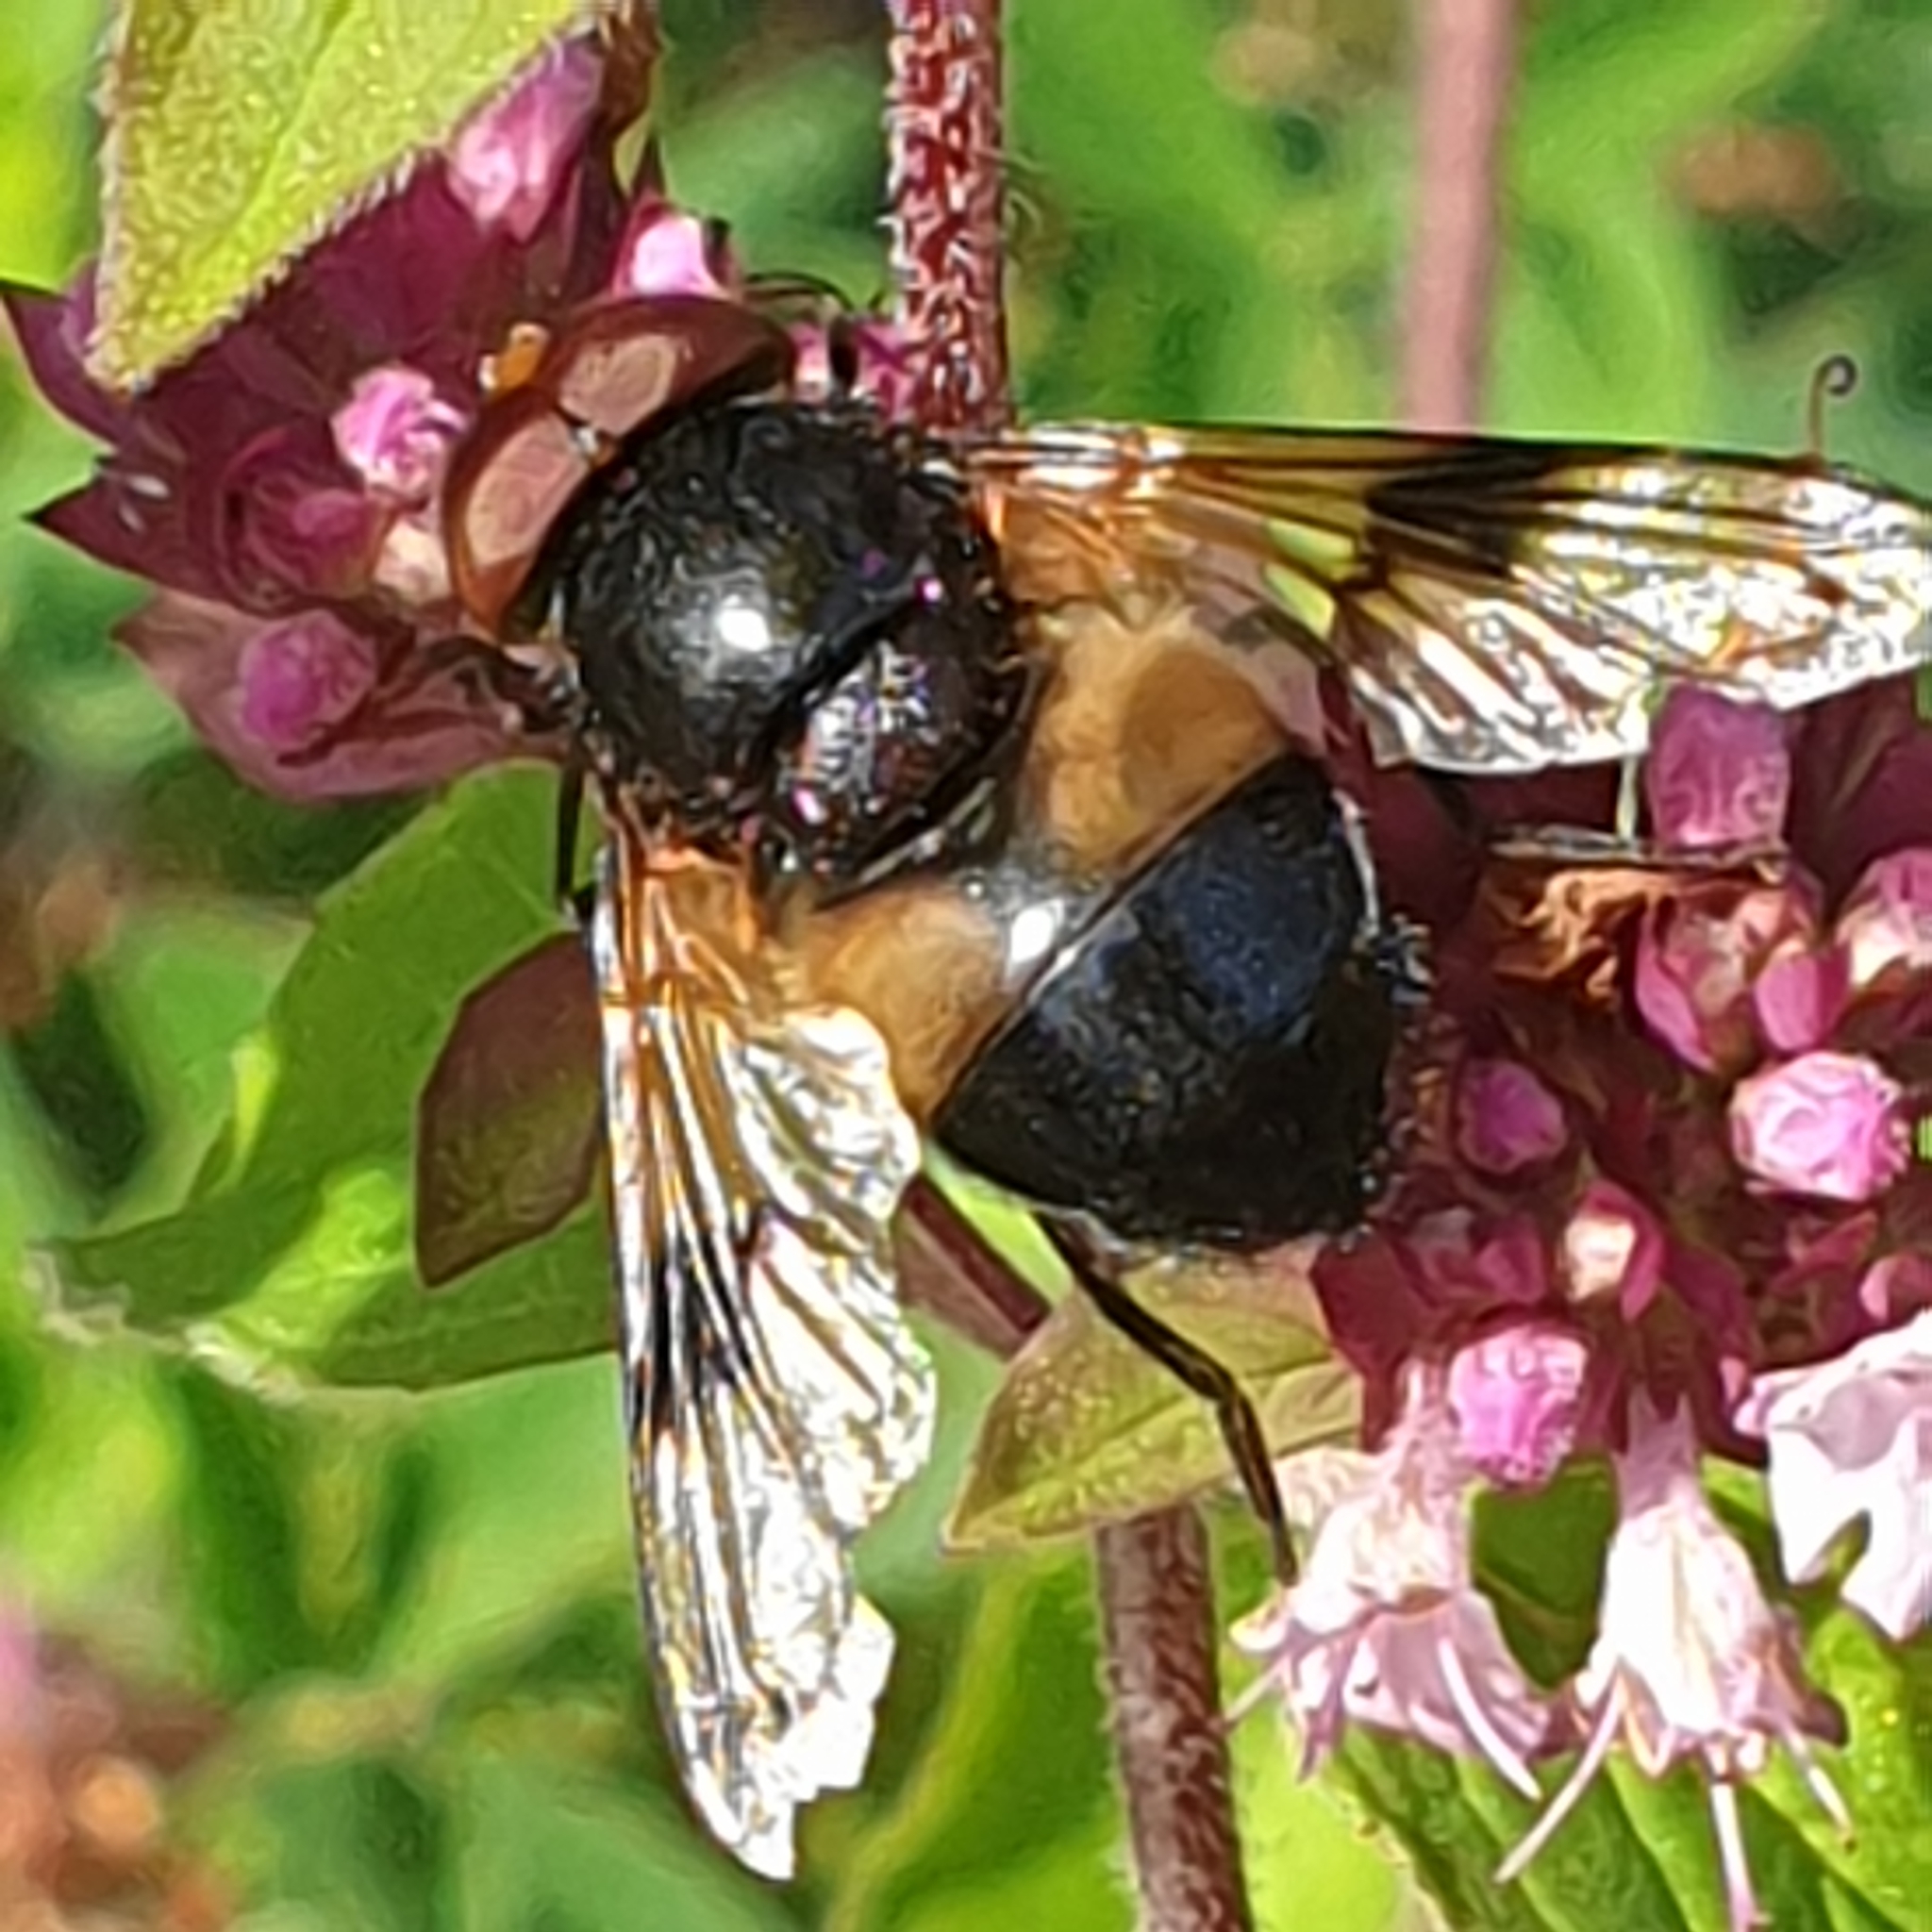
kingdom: Animalia
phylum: Arthropoda
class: Insecta
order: Diptera
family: Syrphidae
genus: Volucella
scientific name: Volucella pellucens
